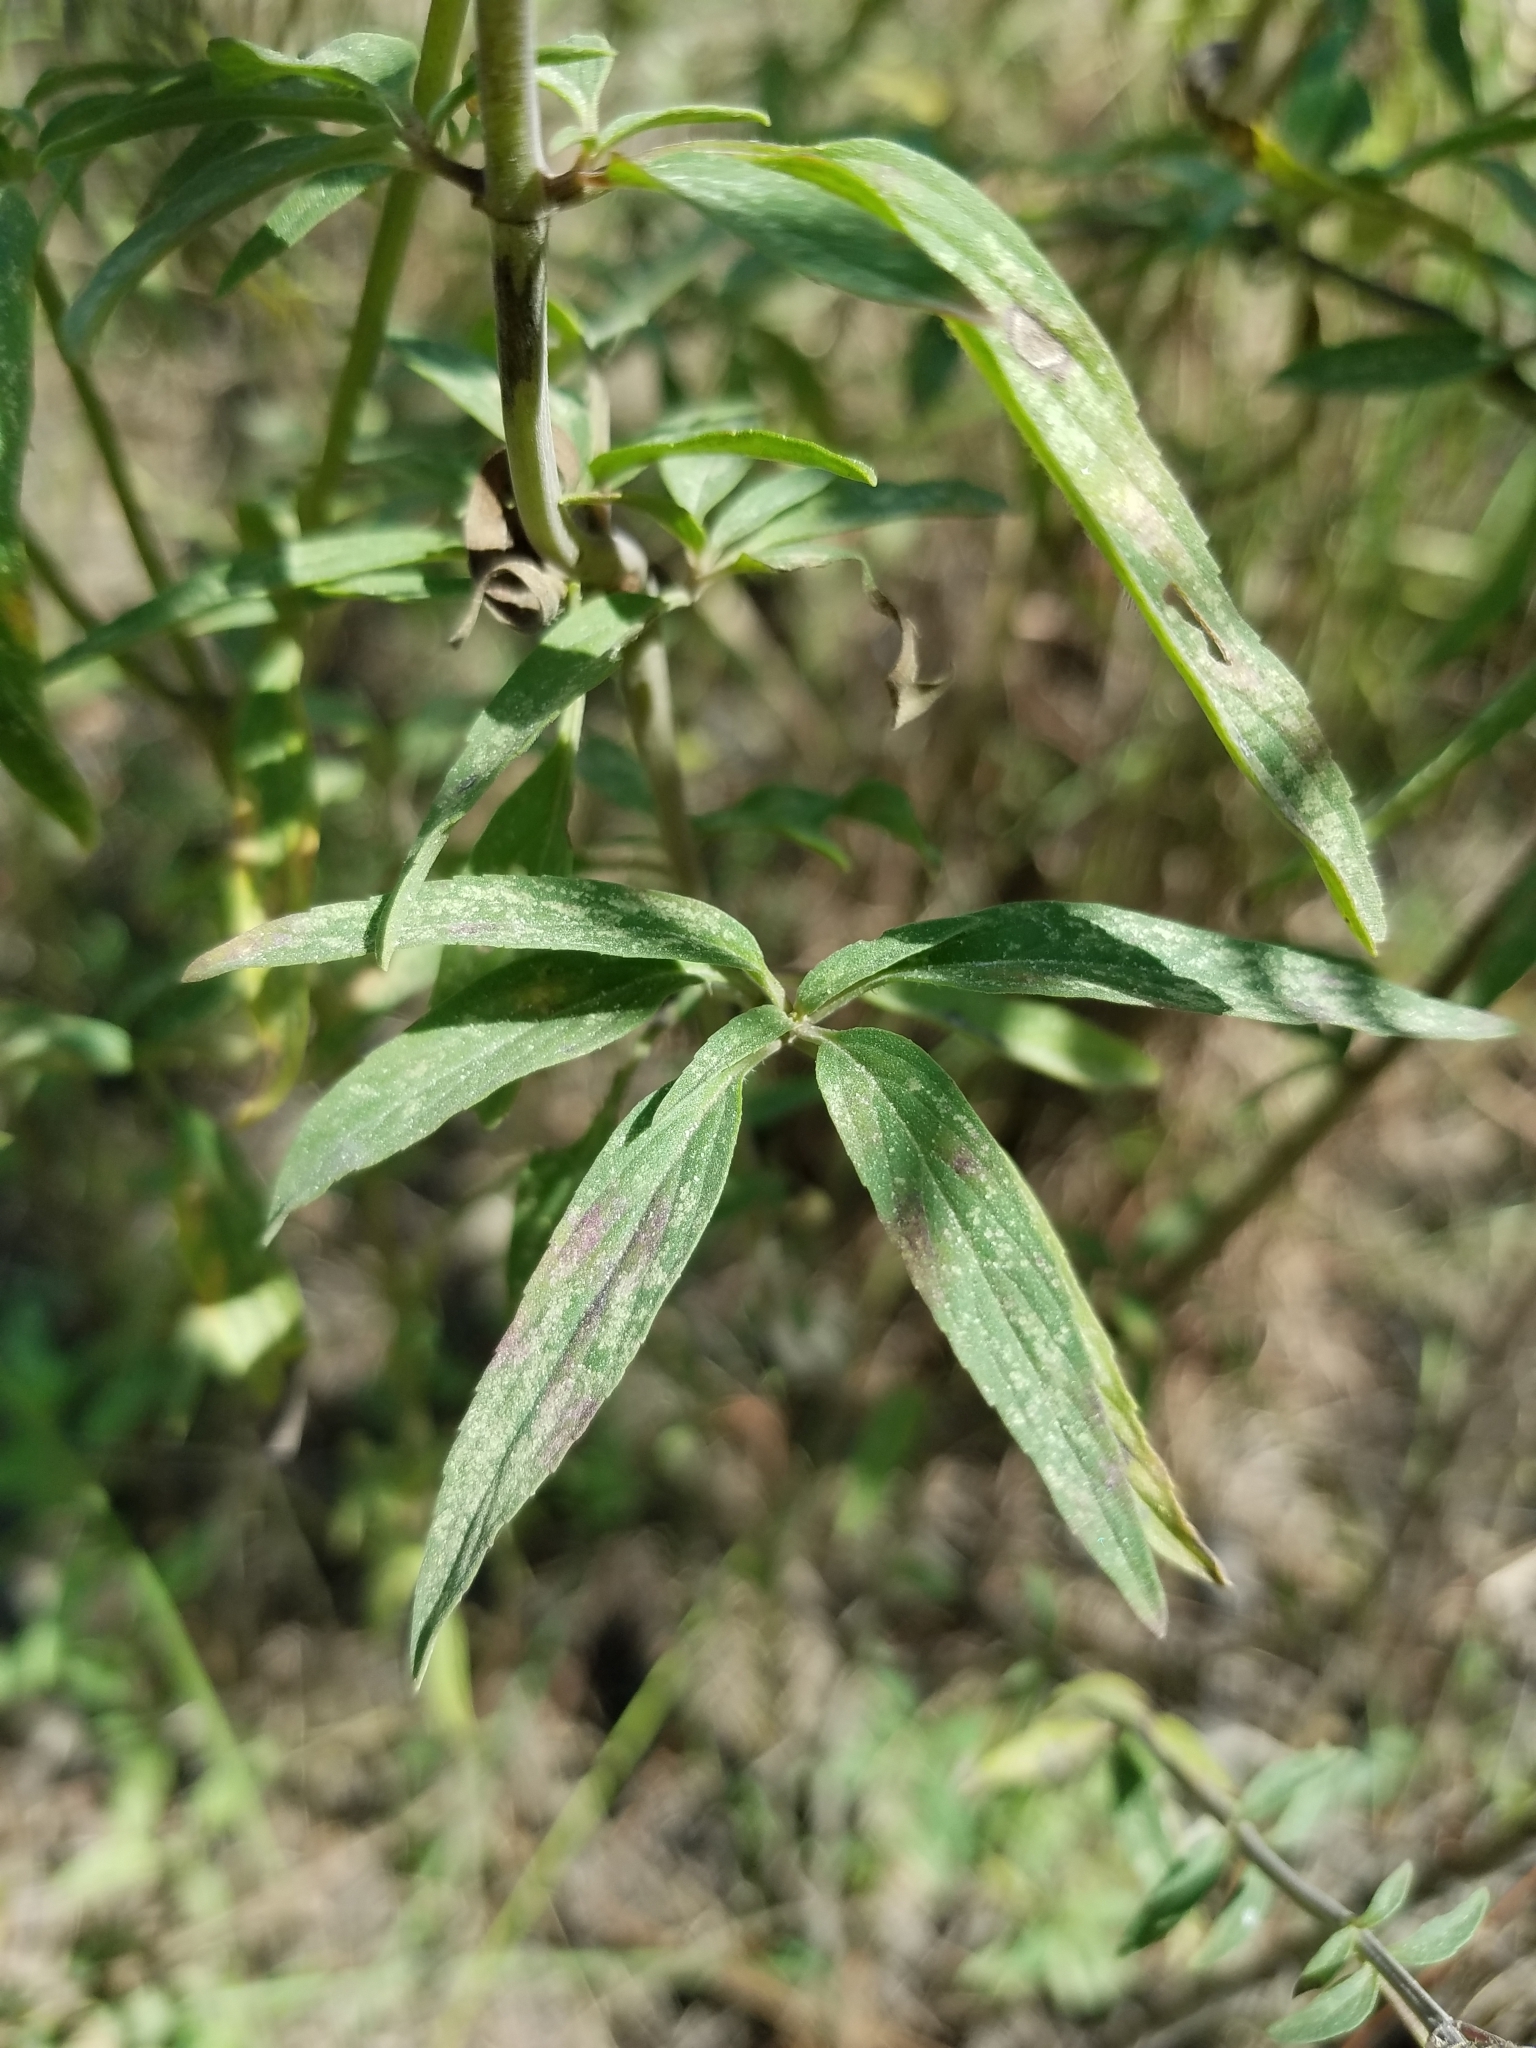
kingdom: Plantae
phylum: Tracheophyta
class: Magnoliopsida
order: Lamiales
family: Lamiaceae
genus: Monarda
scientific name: Monarda punctata
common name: Dotted monarda
